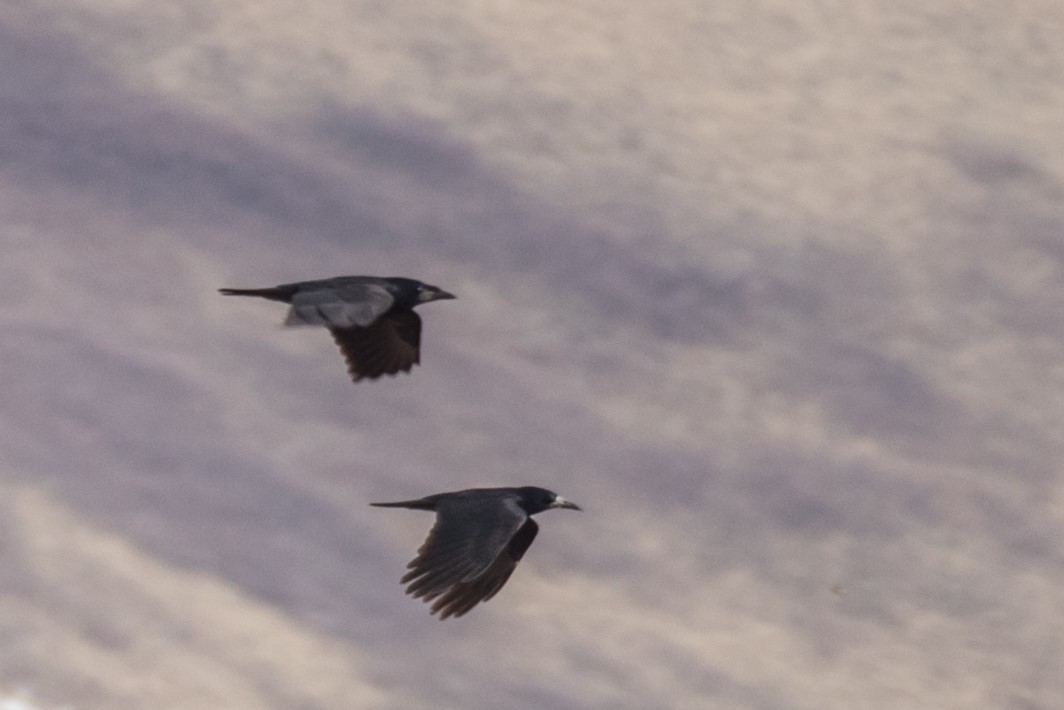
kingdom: Animalia
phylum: Chordata
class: Aves
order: Passeriformes
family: Corvidae
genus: Corvus
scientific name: Corvus frugilegus
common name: Rook
